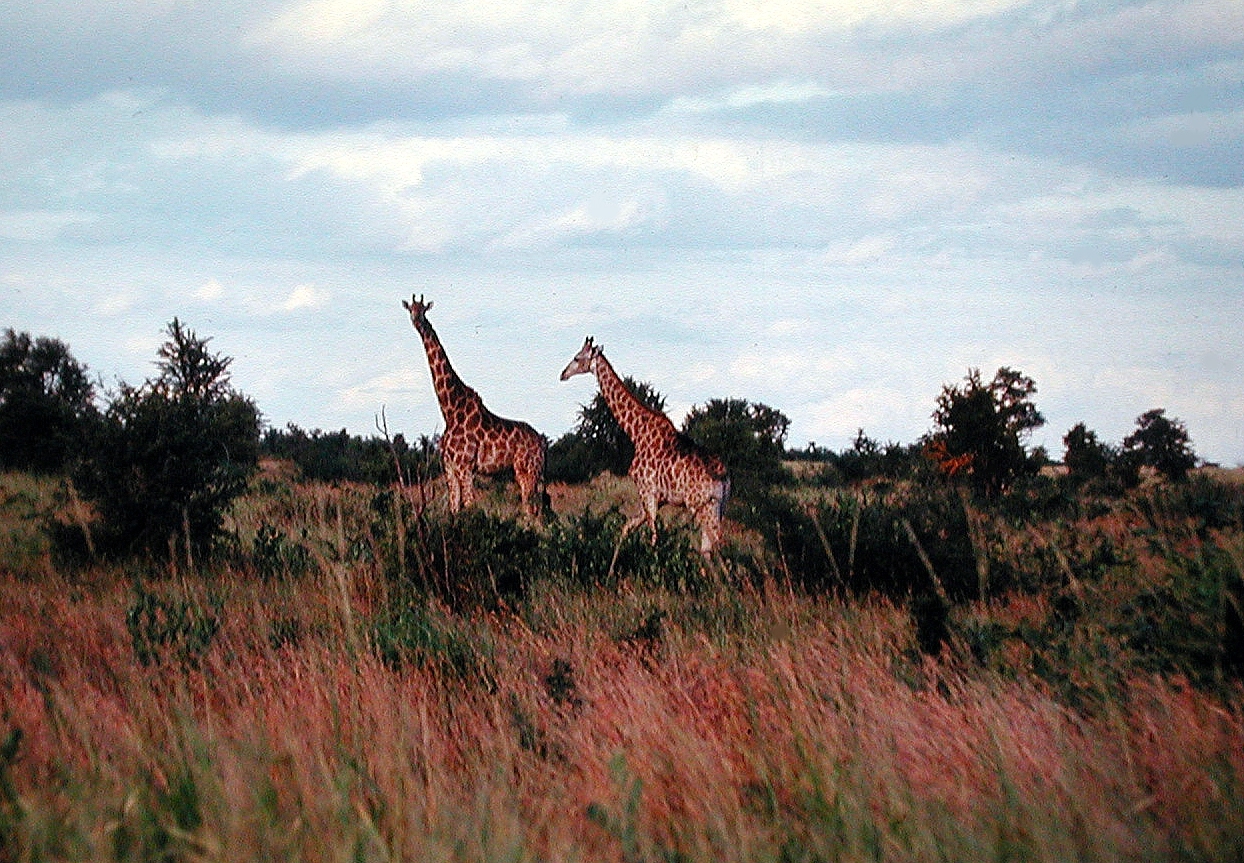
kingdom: Animalia
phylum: Chordata
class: Mammalia
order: Artiodactyla
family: Giraffidae
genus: Giraffa
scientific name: Giraffa giraffa
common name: Southern giraffe
